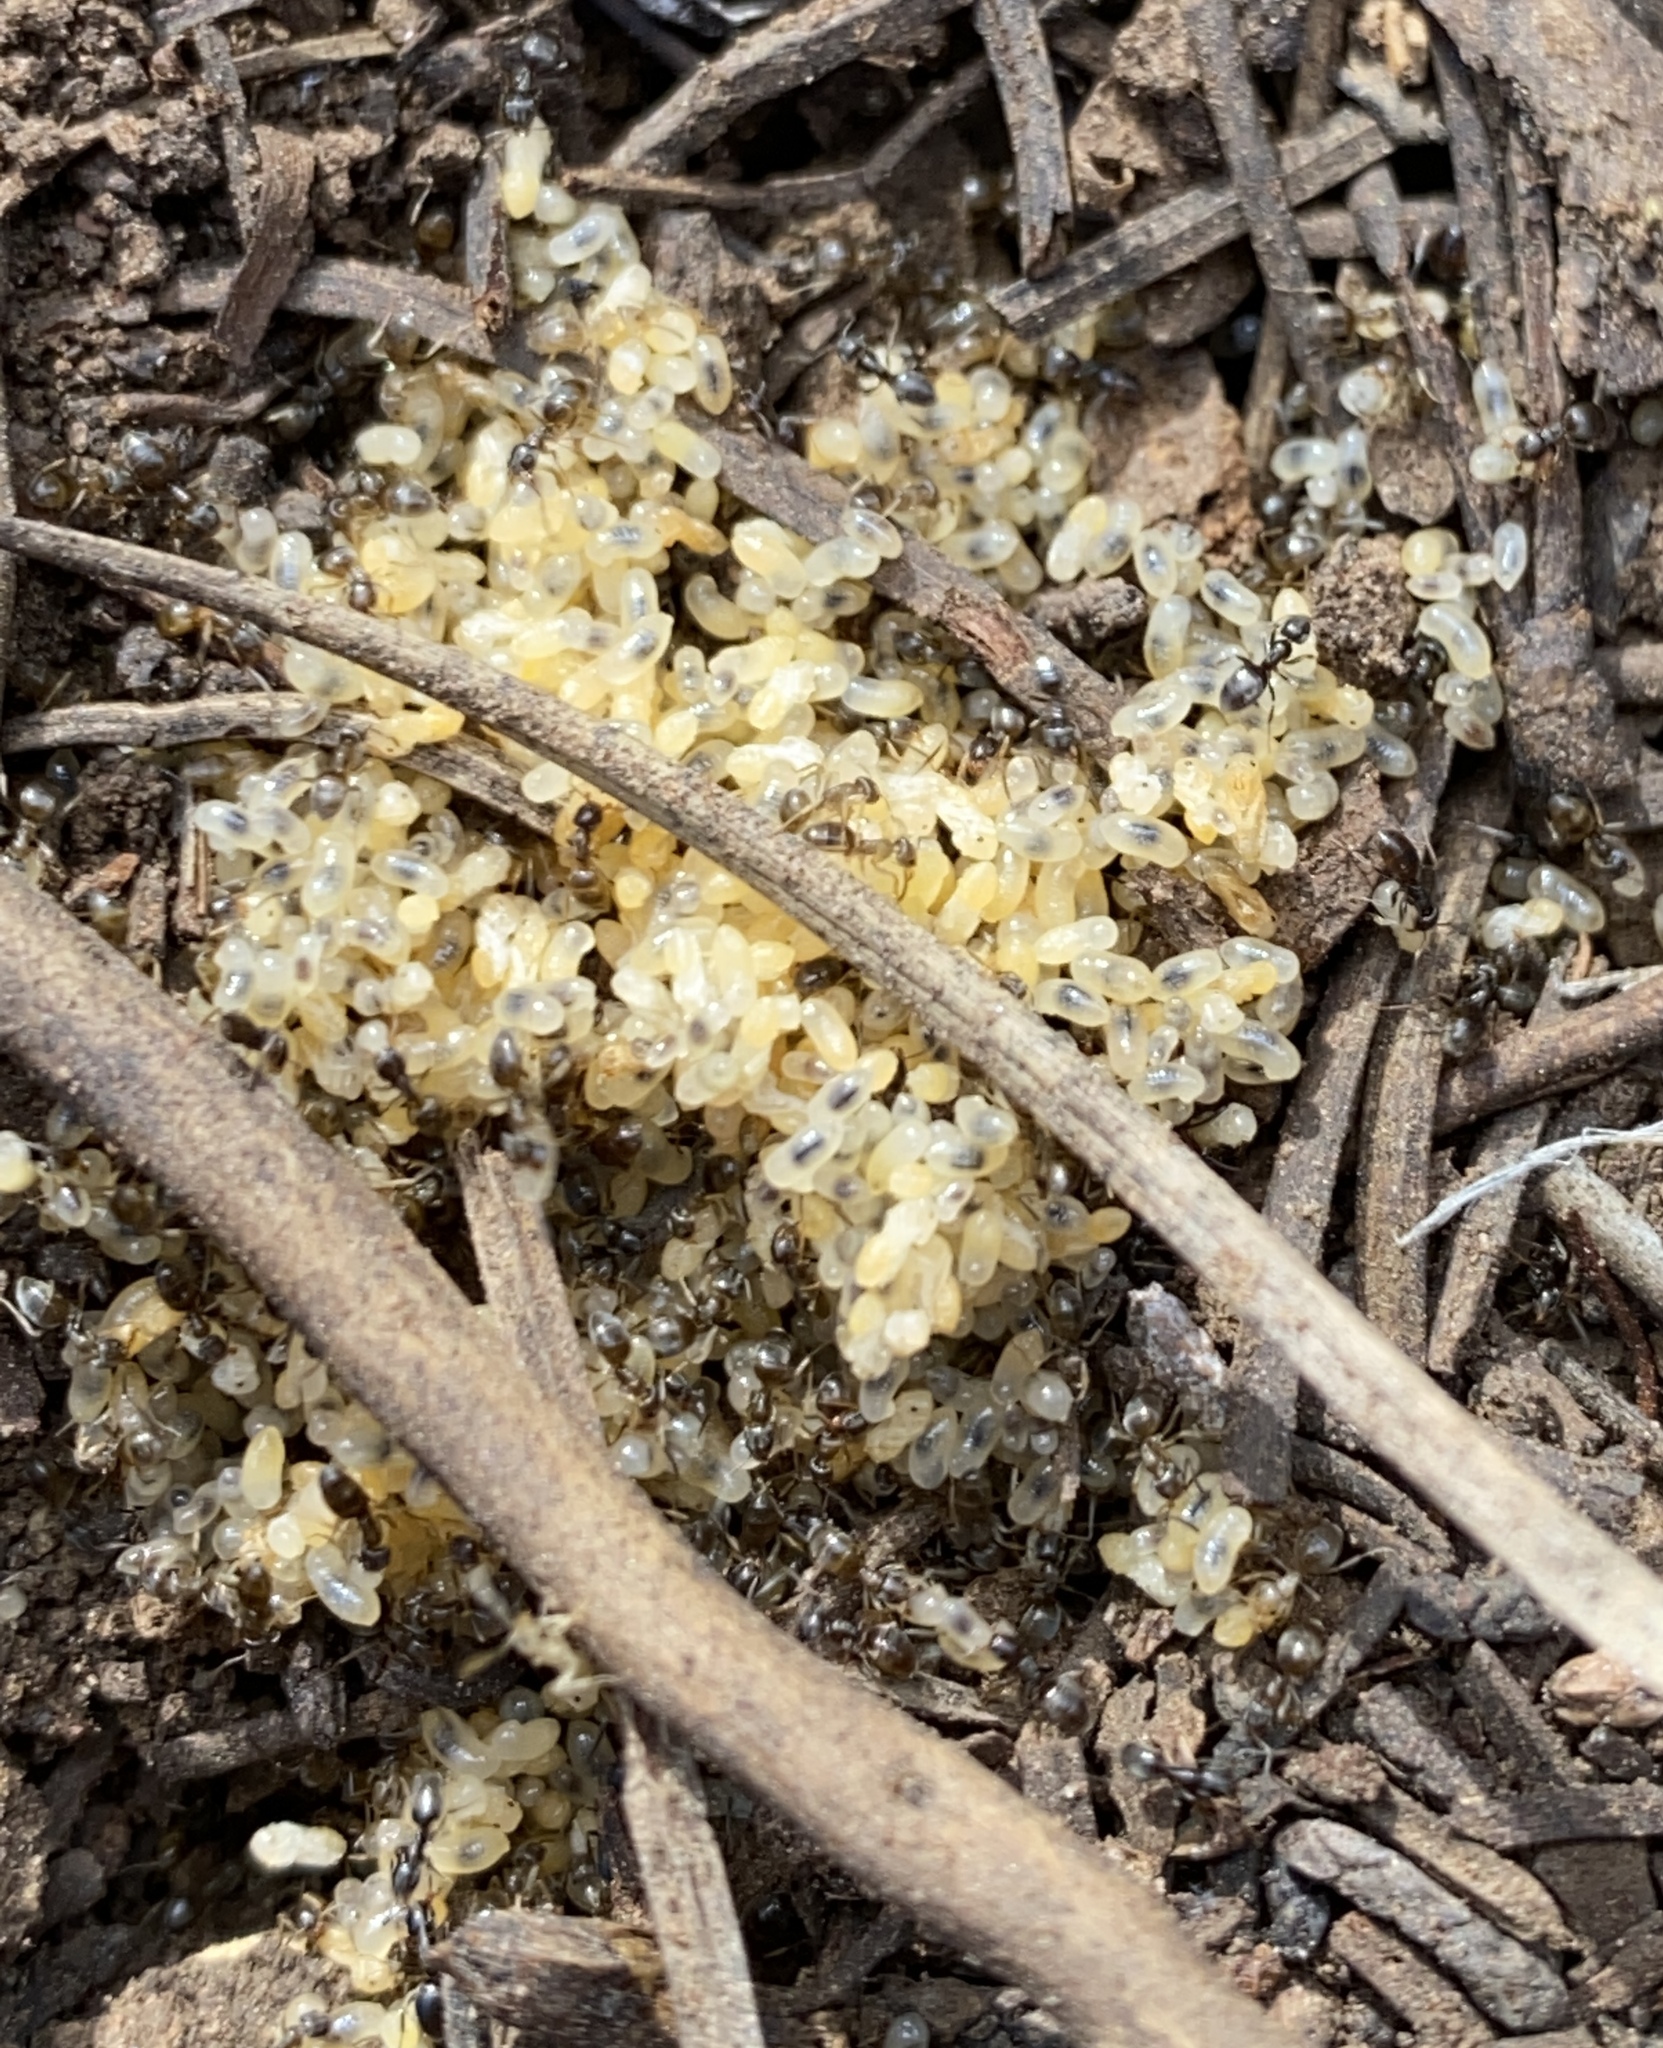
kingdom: Animalia
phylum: Arthropoda
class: Insecta
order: Hymenoptera
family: Formicidae
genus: Tapinoma
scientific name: Tapinoma sessile
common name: Odorous house ant
